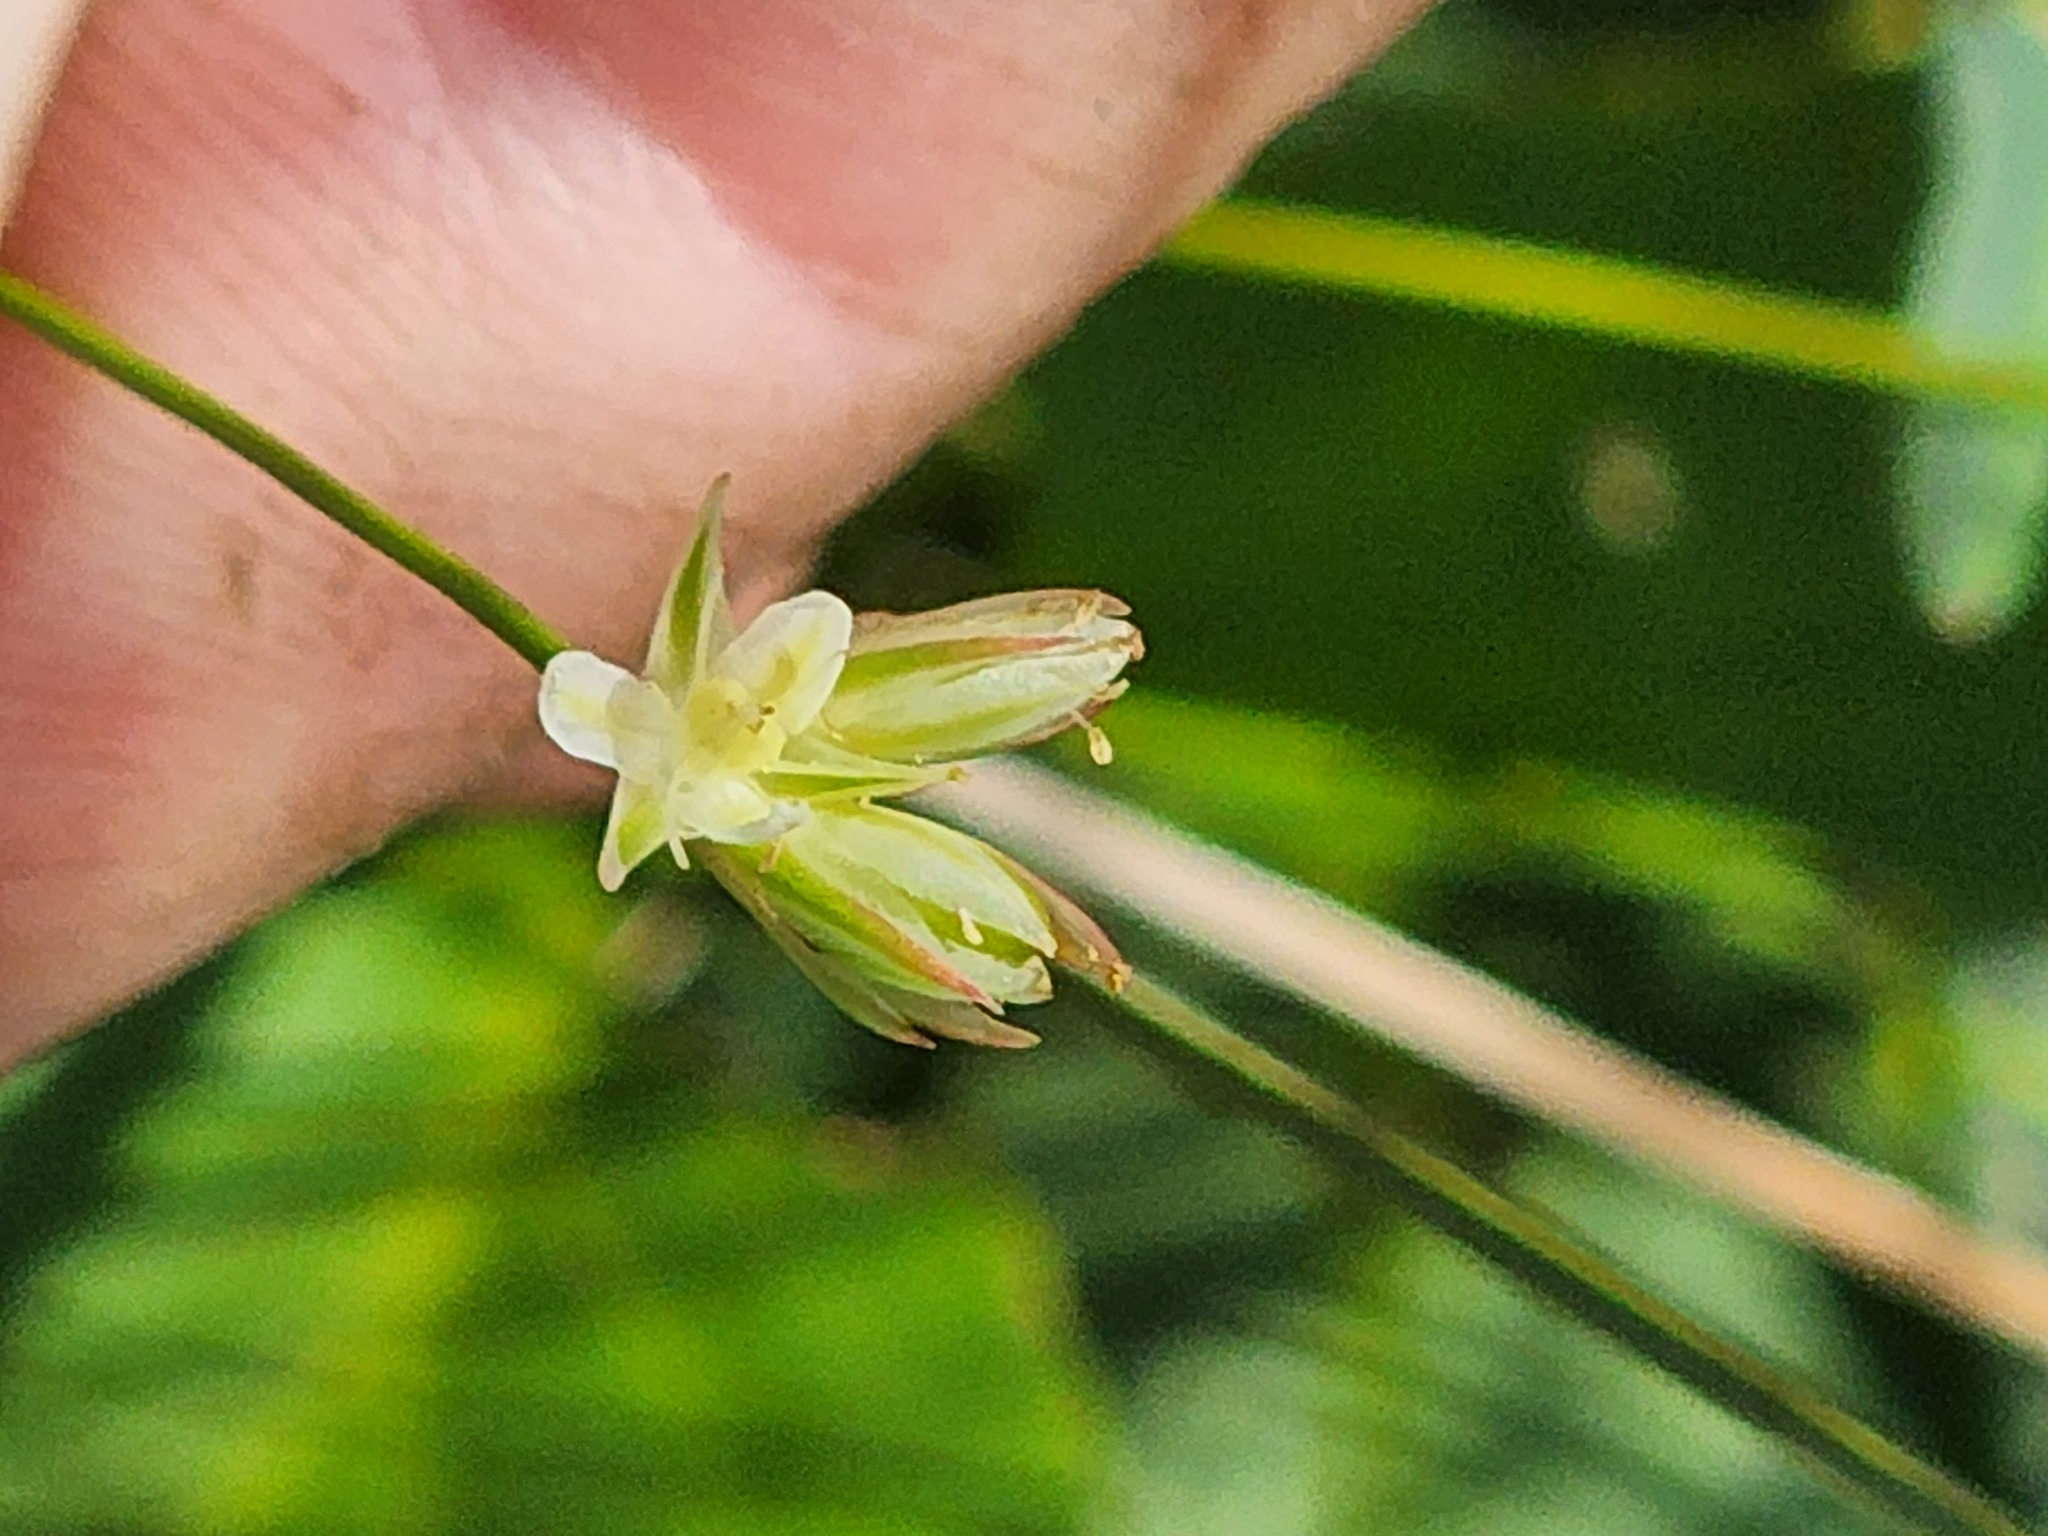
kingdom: Plantae
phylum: Tracheophyta
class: Liliopsida
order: Poales
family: Juncaceae
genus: Juncus
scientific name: Juncus stygius
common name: Bog rush
